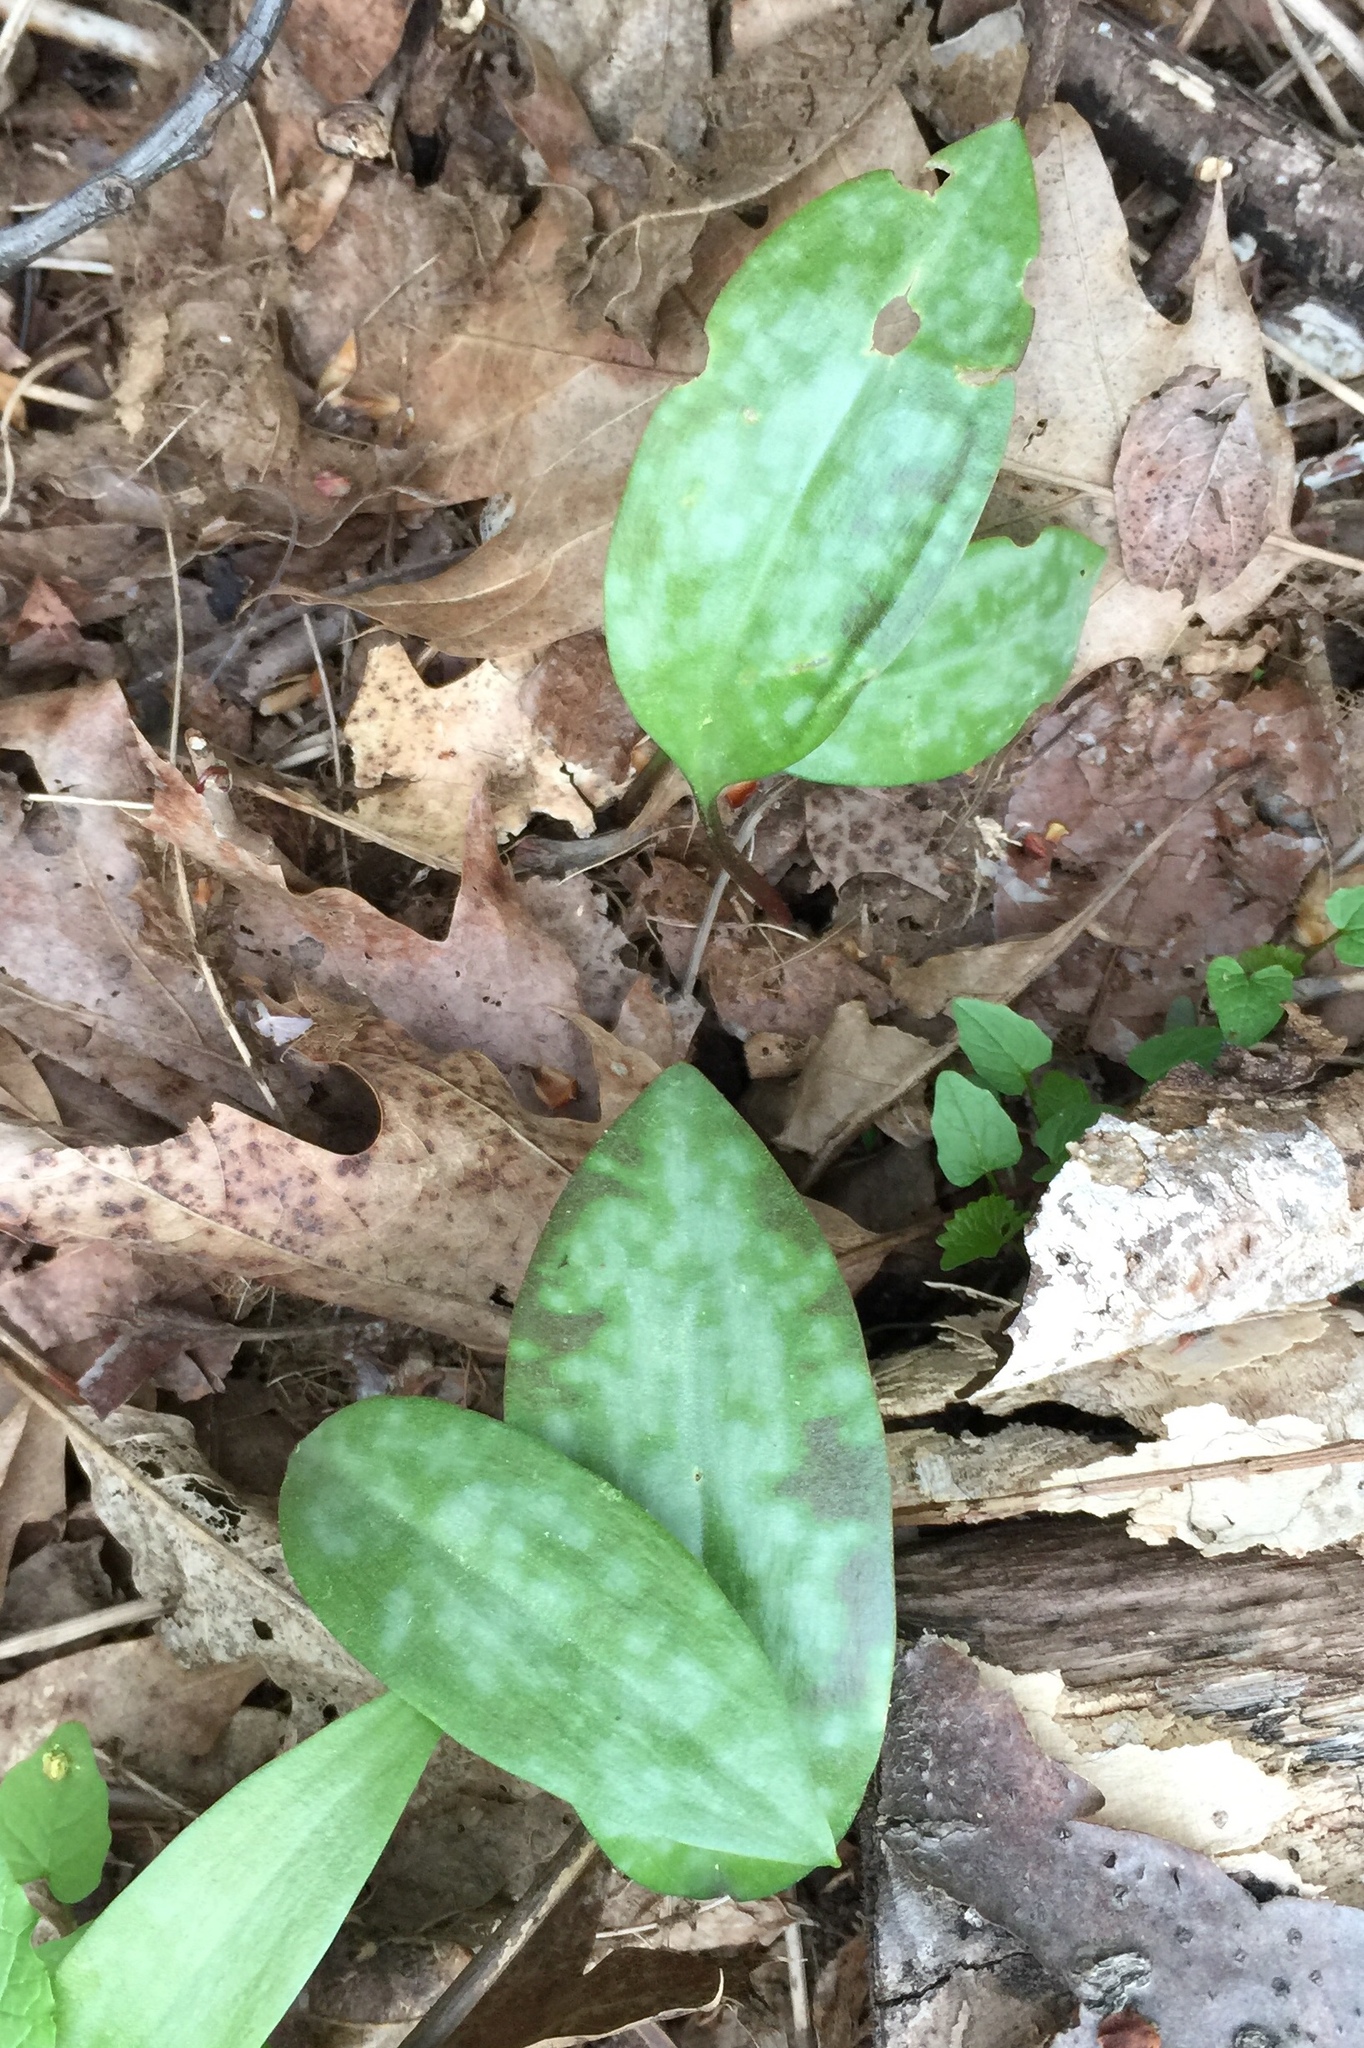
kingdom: Plantae
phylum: Tracheophyta
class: Liliopsida
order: Liliales
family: Liliaceae
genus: Erythronium
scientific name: Erythronium americanum
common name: Yellow adder's-tongue
